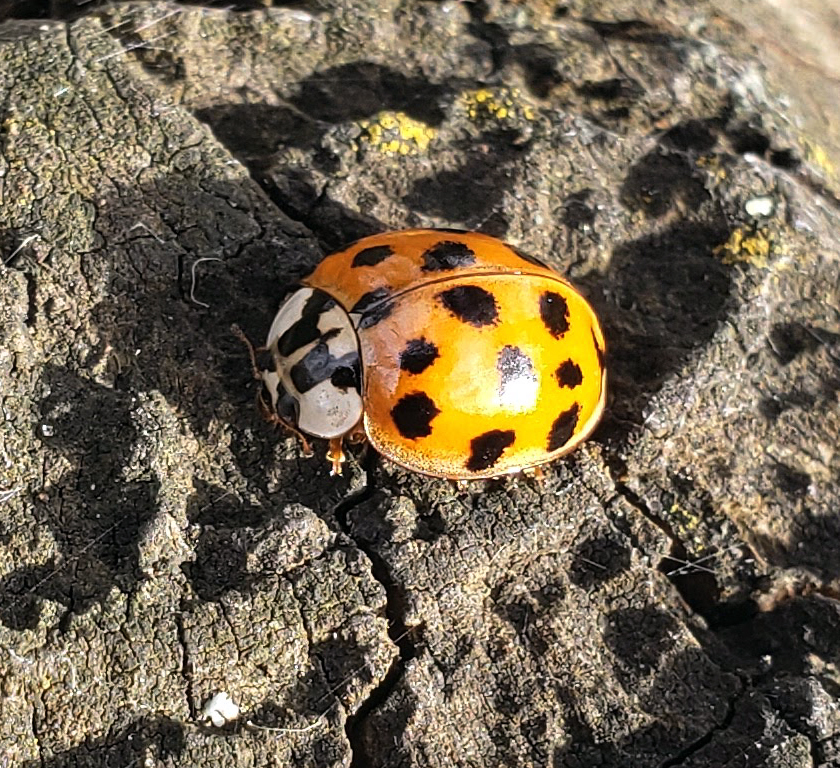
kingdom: Animalia
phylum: Arthropoda
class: Insecta
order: Coleoptera
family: Coccinellidae
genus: Harmonia
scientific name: Harmonia axyridis
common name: Harlequin ladybird
